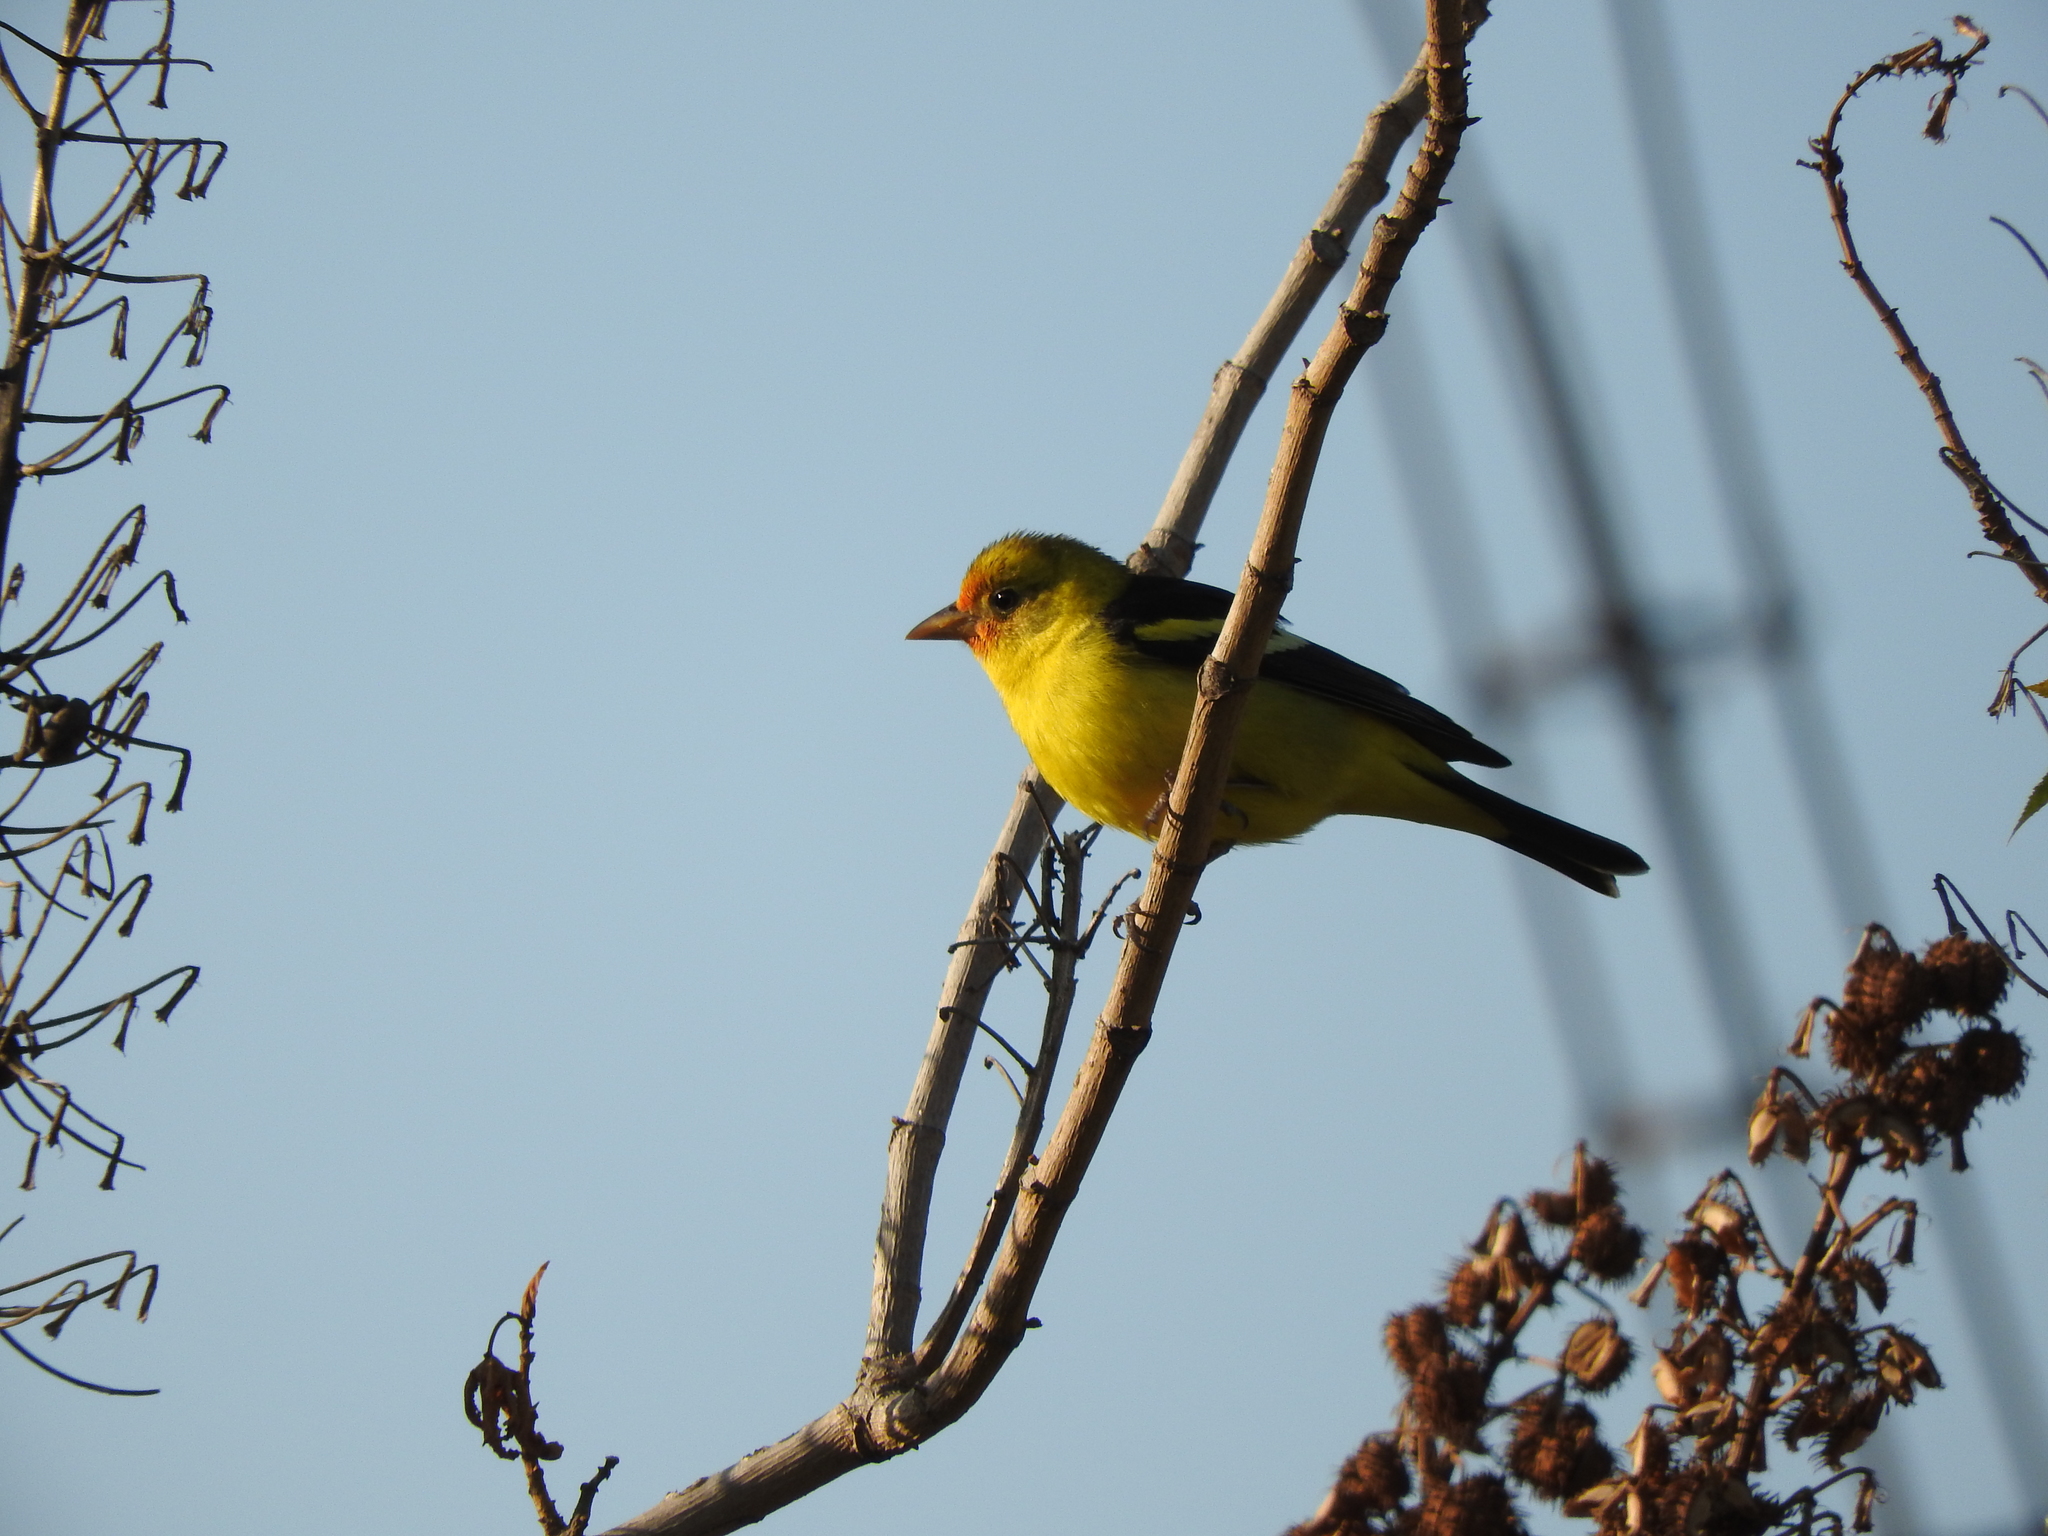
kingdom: Animalia
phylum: Chordata
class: Aves
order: Passeriformes
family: Cardinalidae
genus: Piranga
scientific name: Piranga ludoviciana
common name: Western tanager
